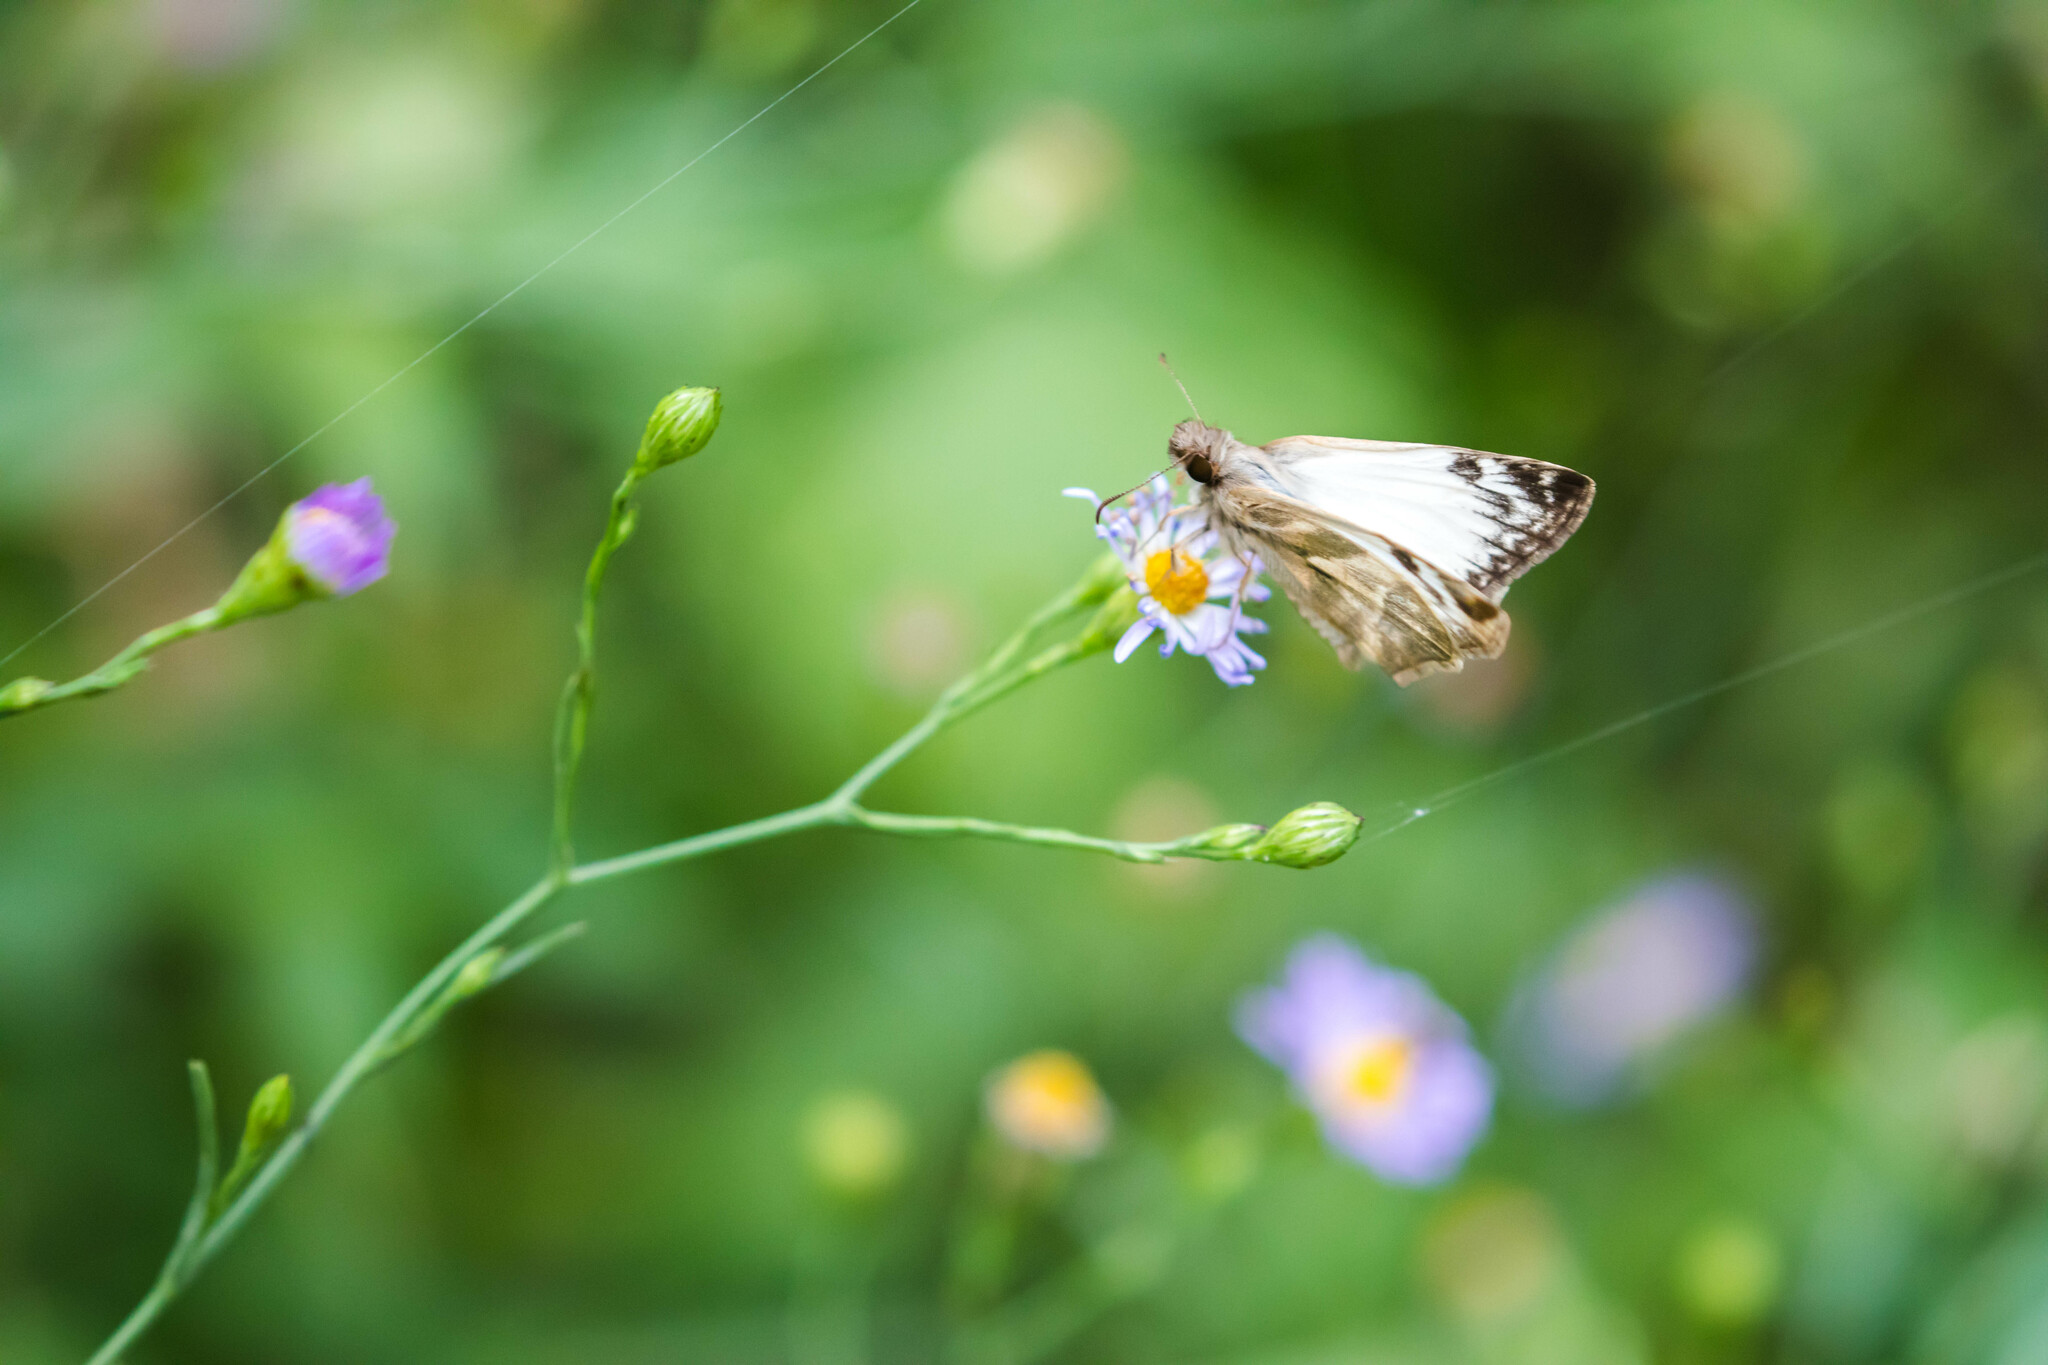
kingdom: Animalia
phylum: Arthropoda
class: Insecta
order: Lepidoptera
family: Hesperiidae
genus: Heliopetes
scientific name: Heliopetes laviana
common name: Laviana white-skipper
